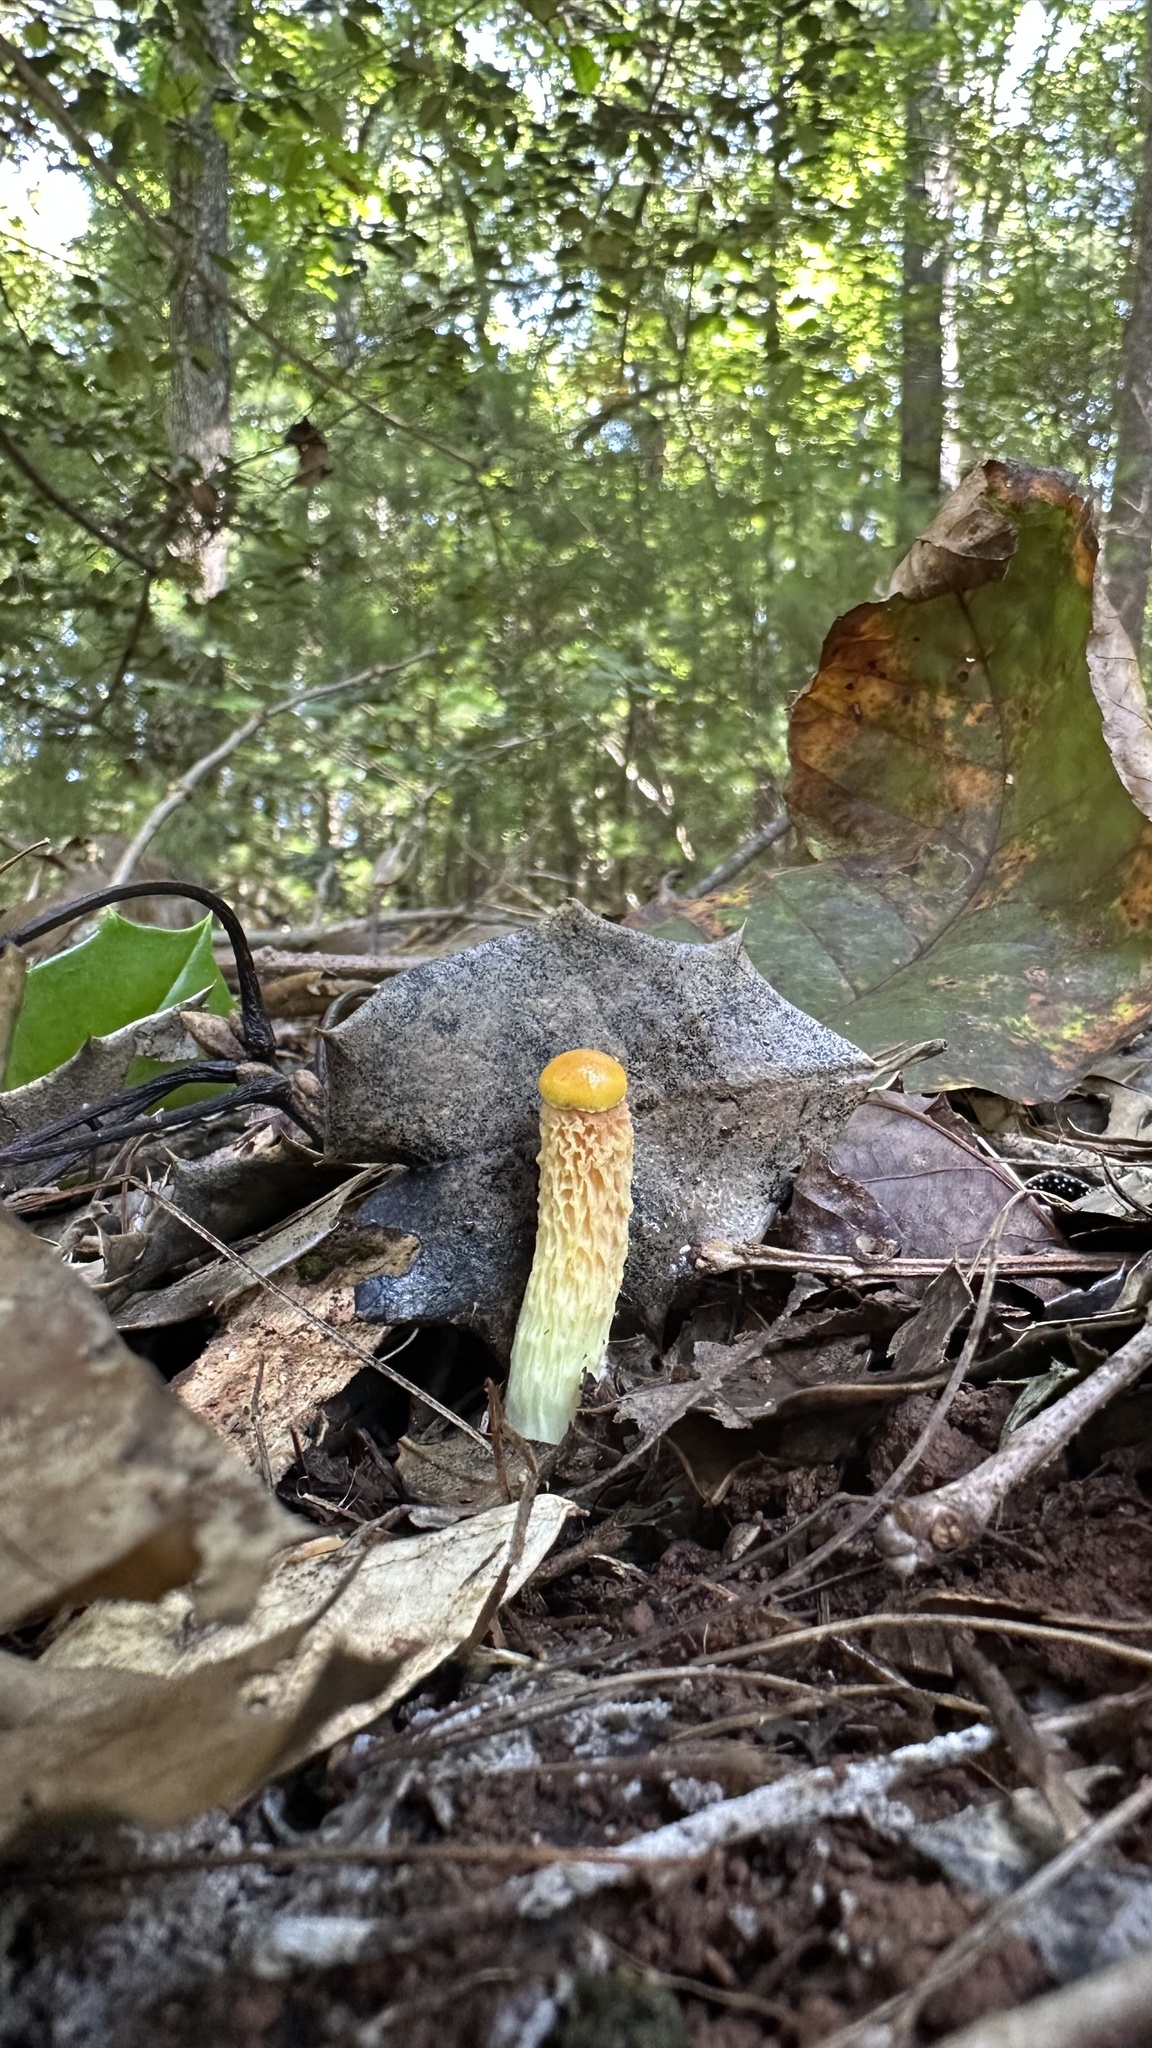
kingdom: Fungi
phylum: Basidiomycota
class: Agaricomycetes
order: Boletales
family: Boletaceae
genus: Aureoboletus
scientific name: Aureoboletus betula
